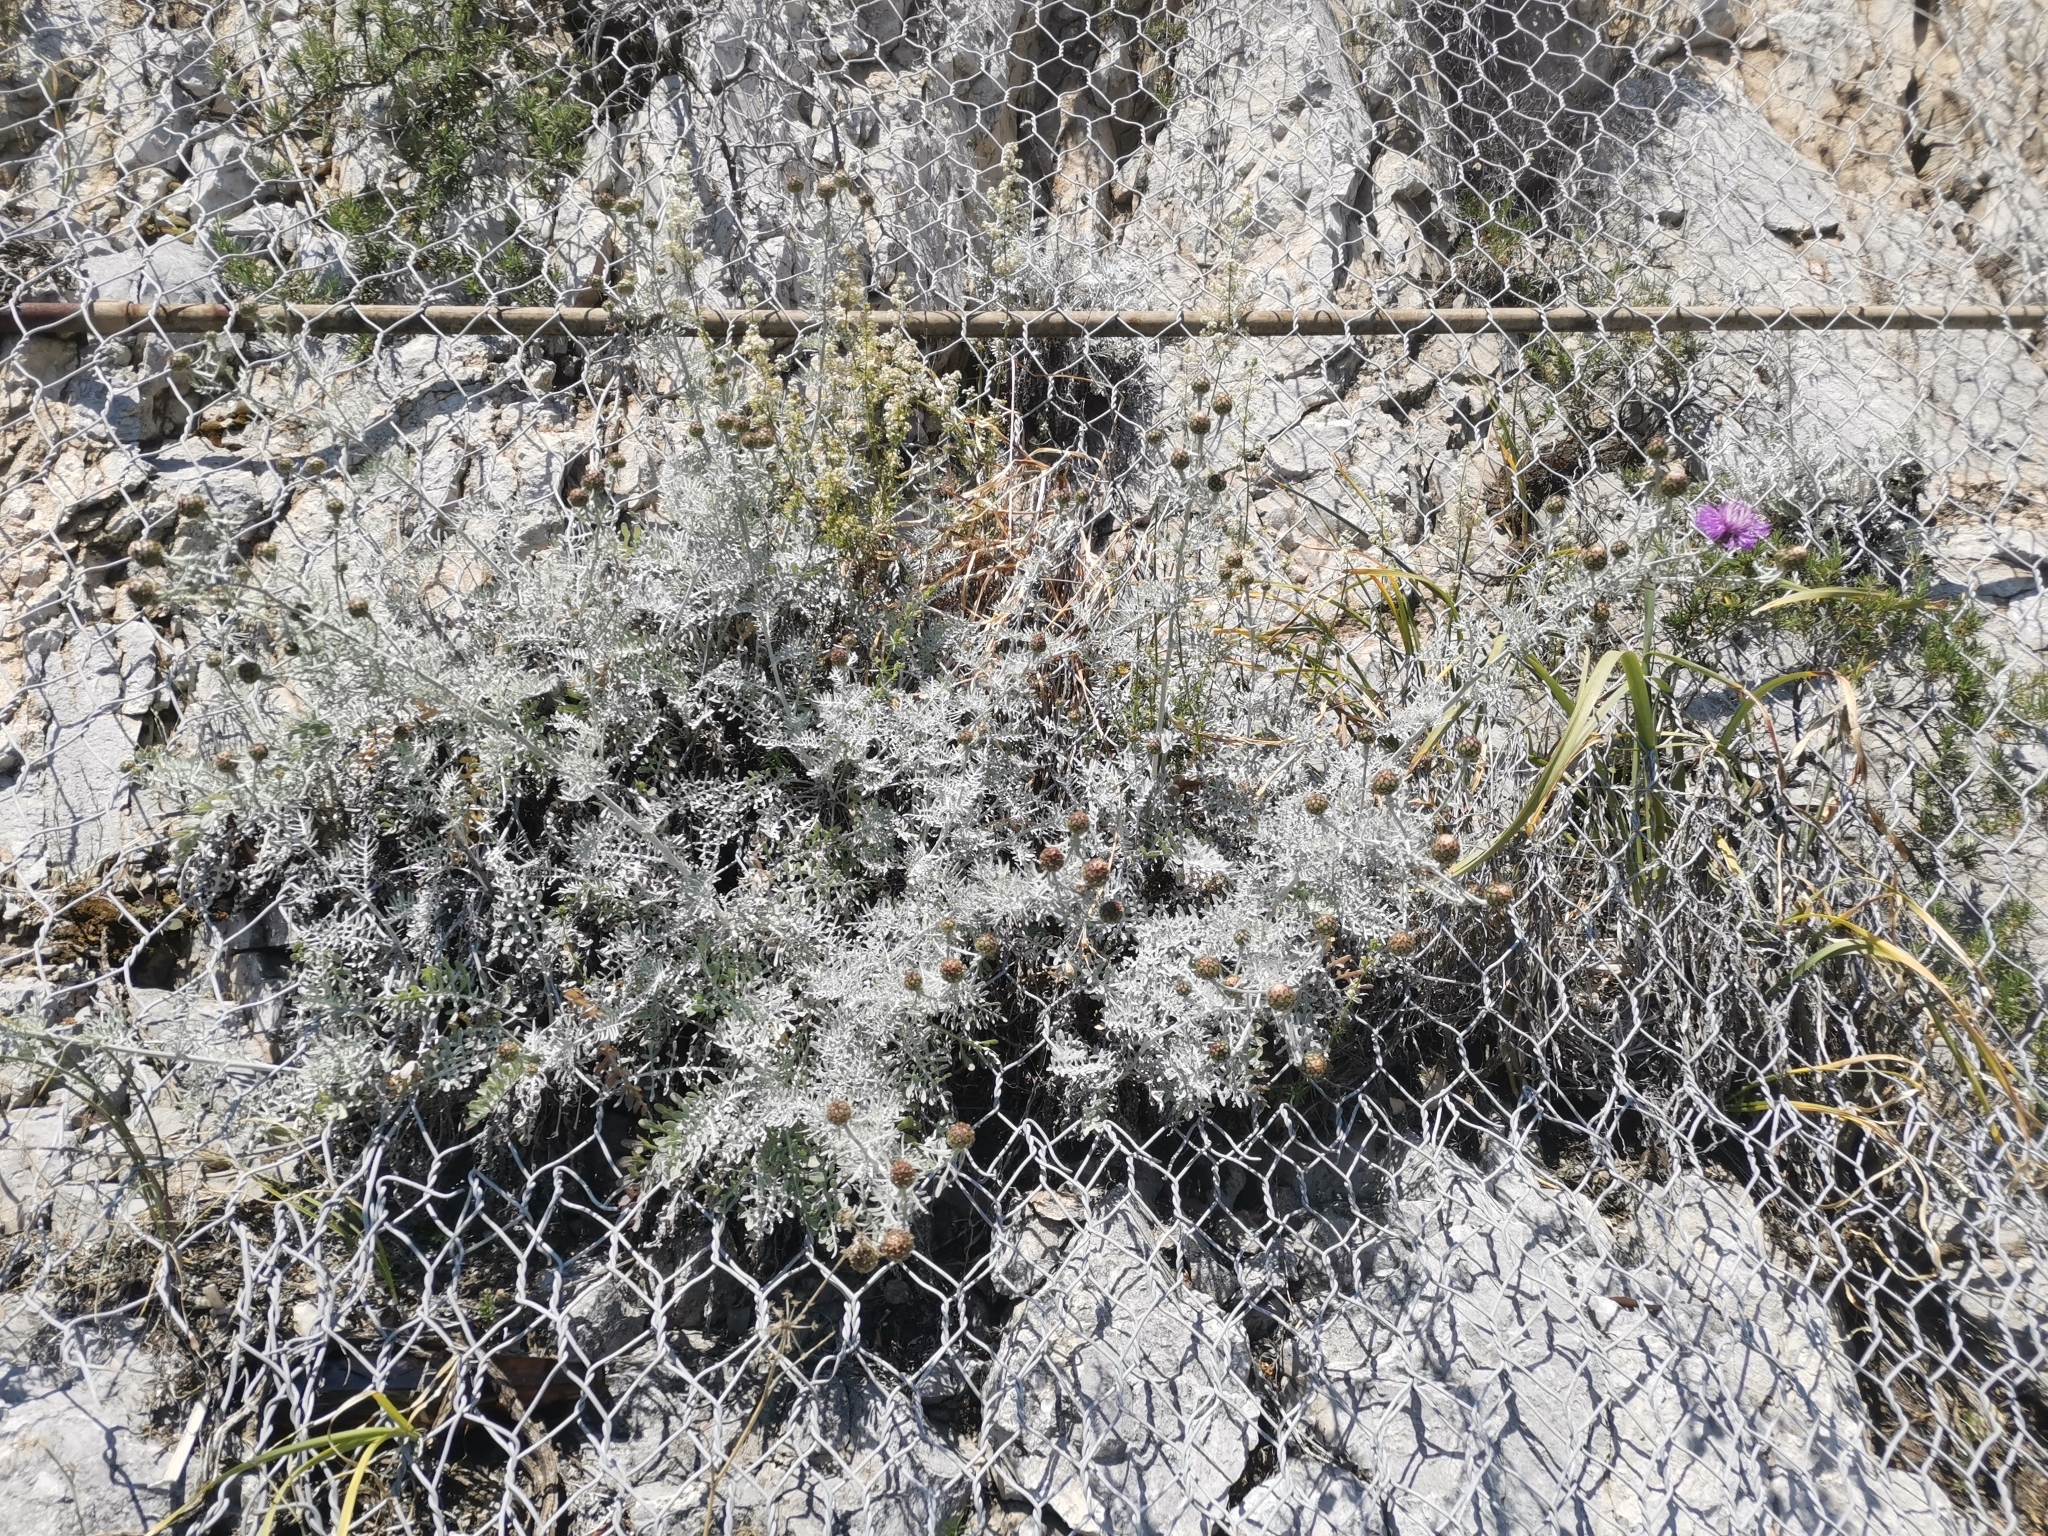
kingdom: Plantae
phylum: Tracheophyta
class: Magnoliopsida
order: Asterales
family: Asteraceae
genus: Centaurea
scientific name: Centaurea cineraria
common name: Dusty miller
